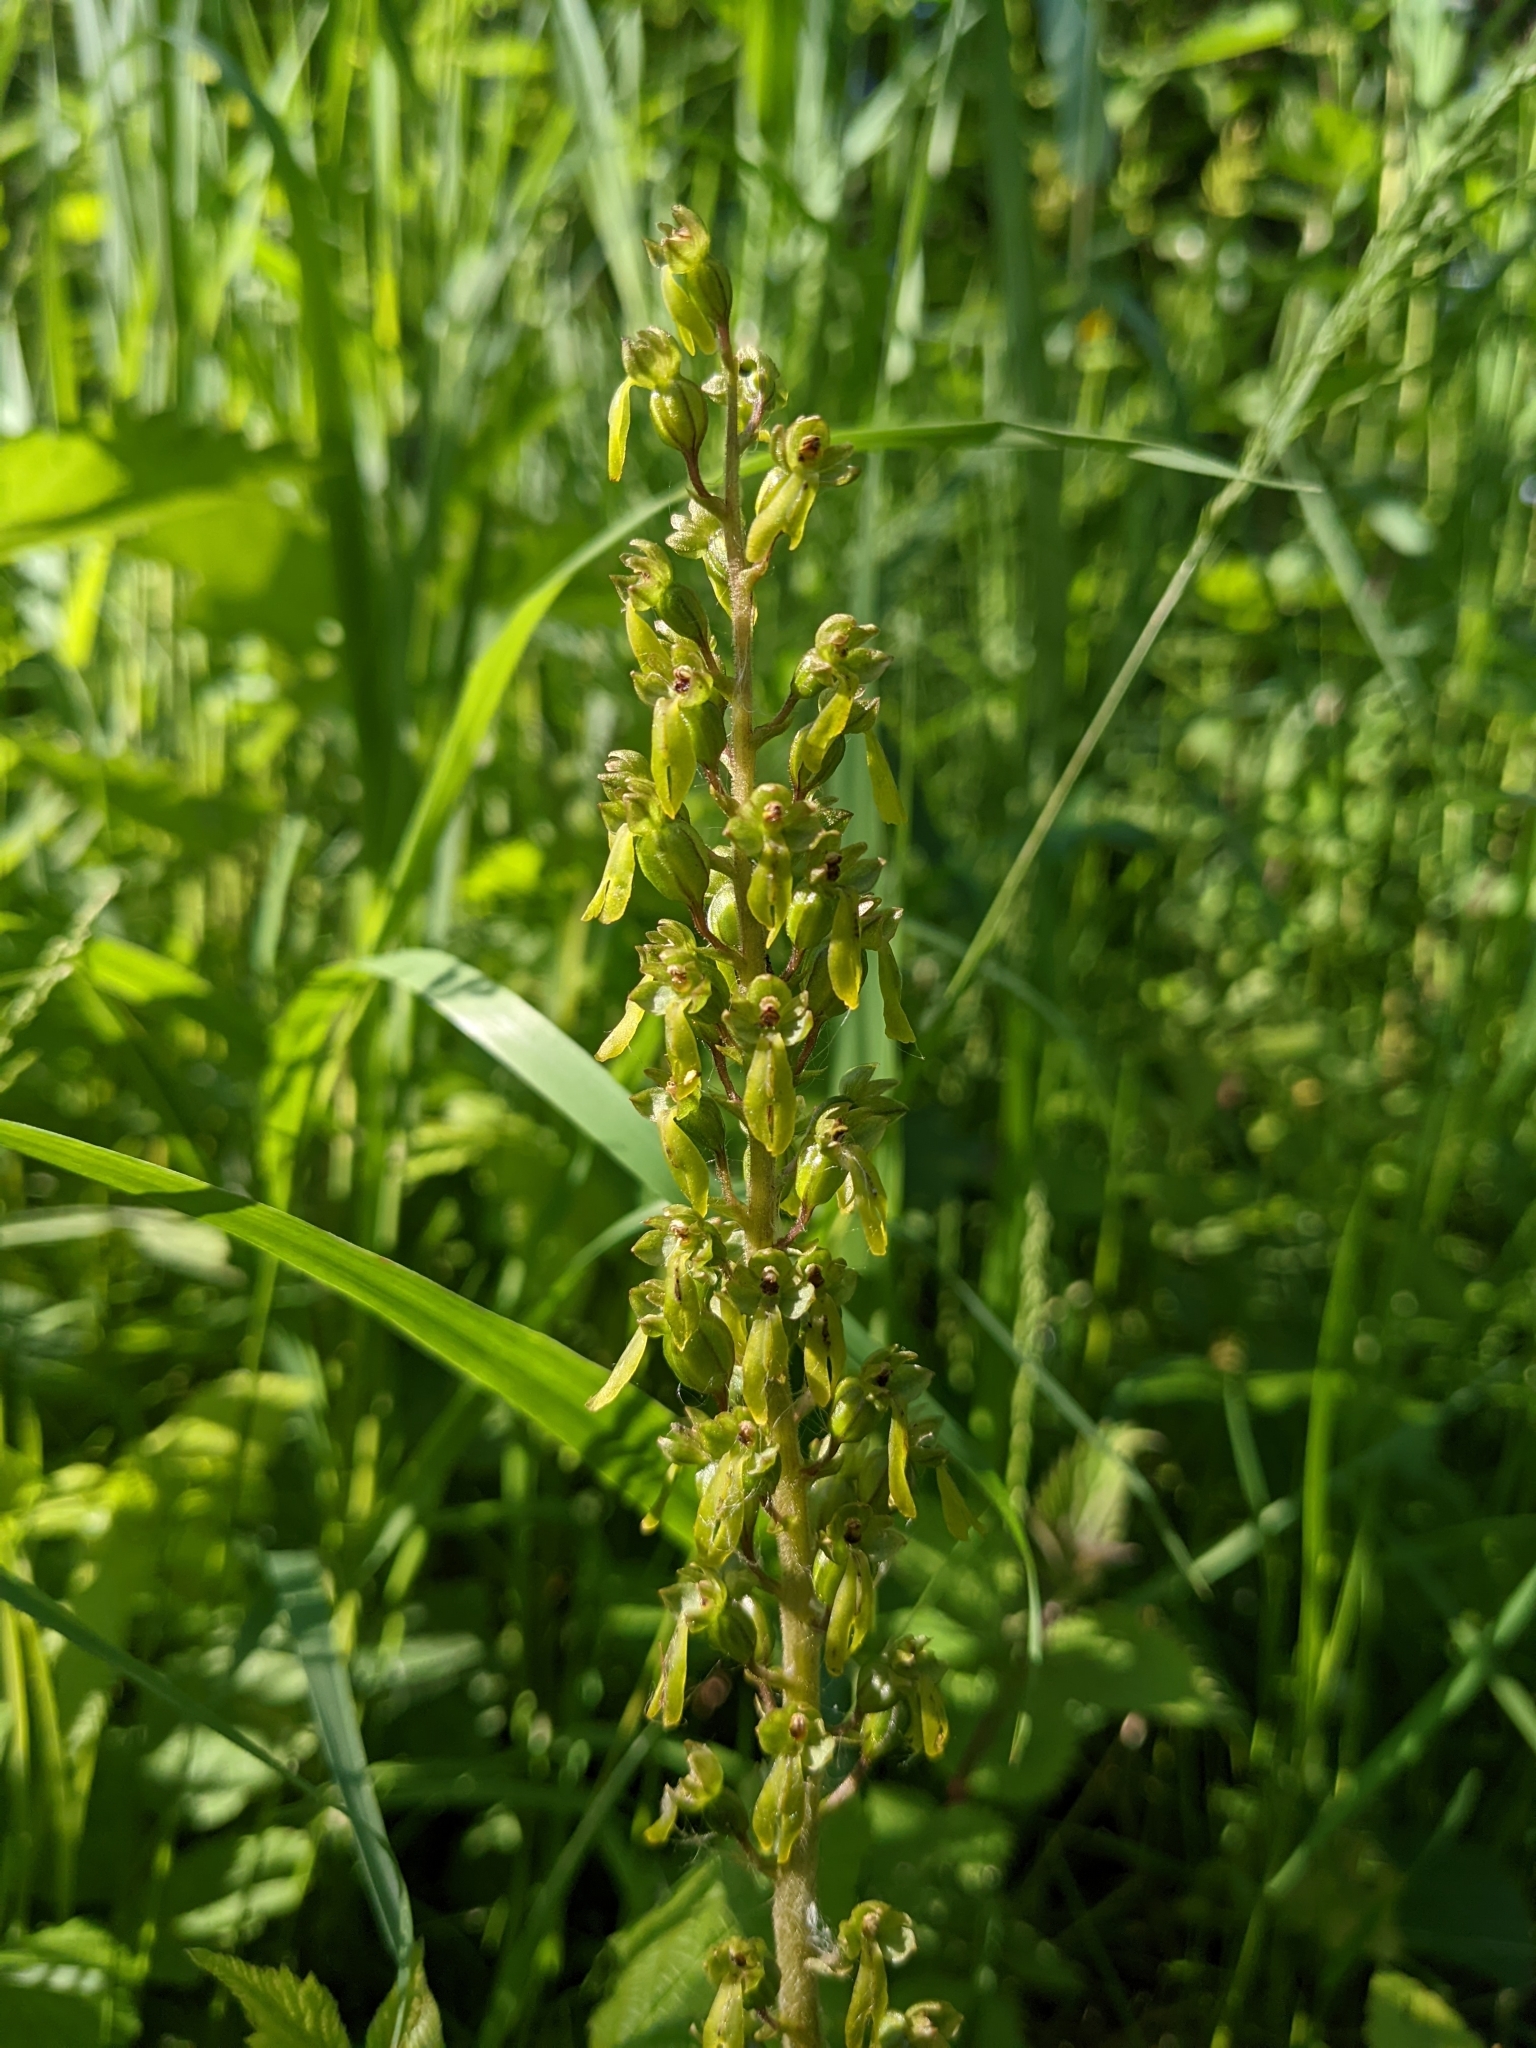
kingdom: Plantae
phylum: Tracheophyta
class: Liliopsida
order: Asparagales
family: Orchidaceae
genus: Neottia
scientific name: Neottia ovata
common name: Common twayblade
